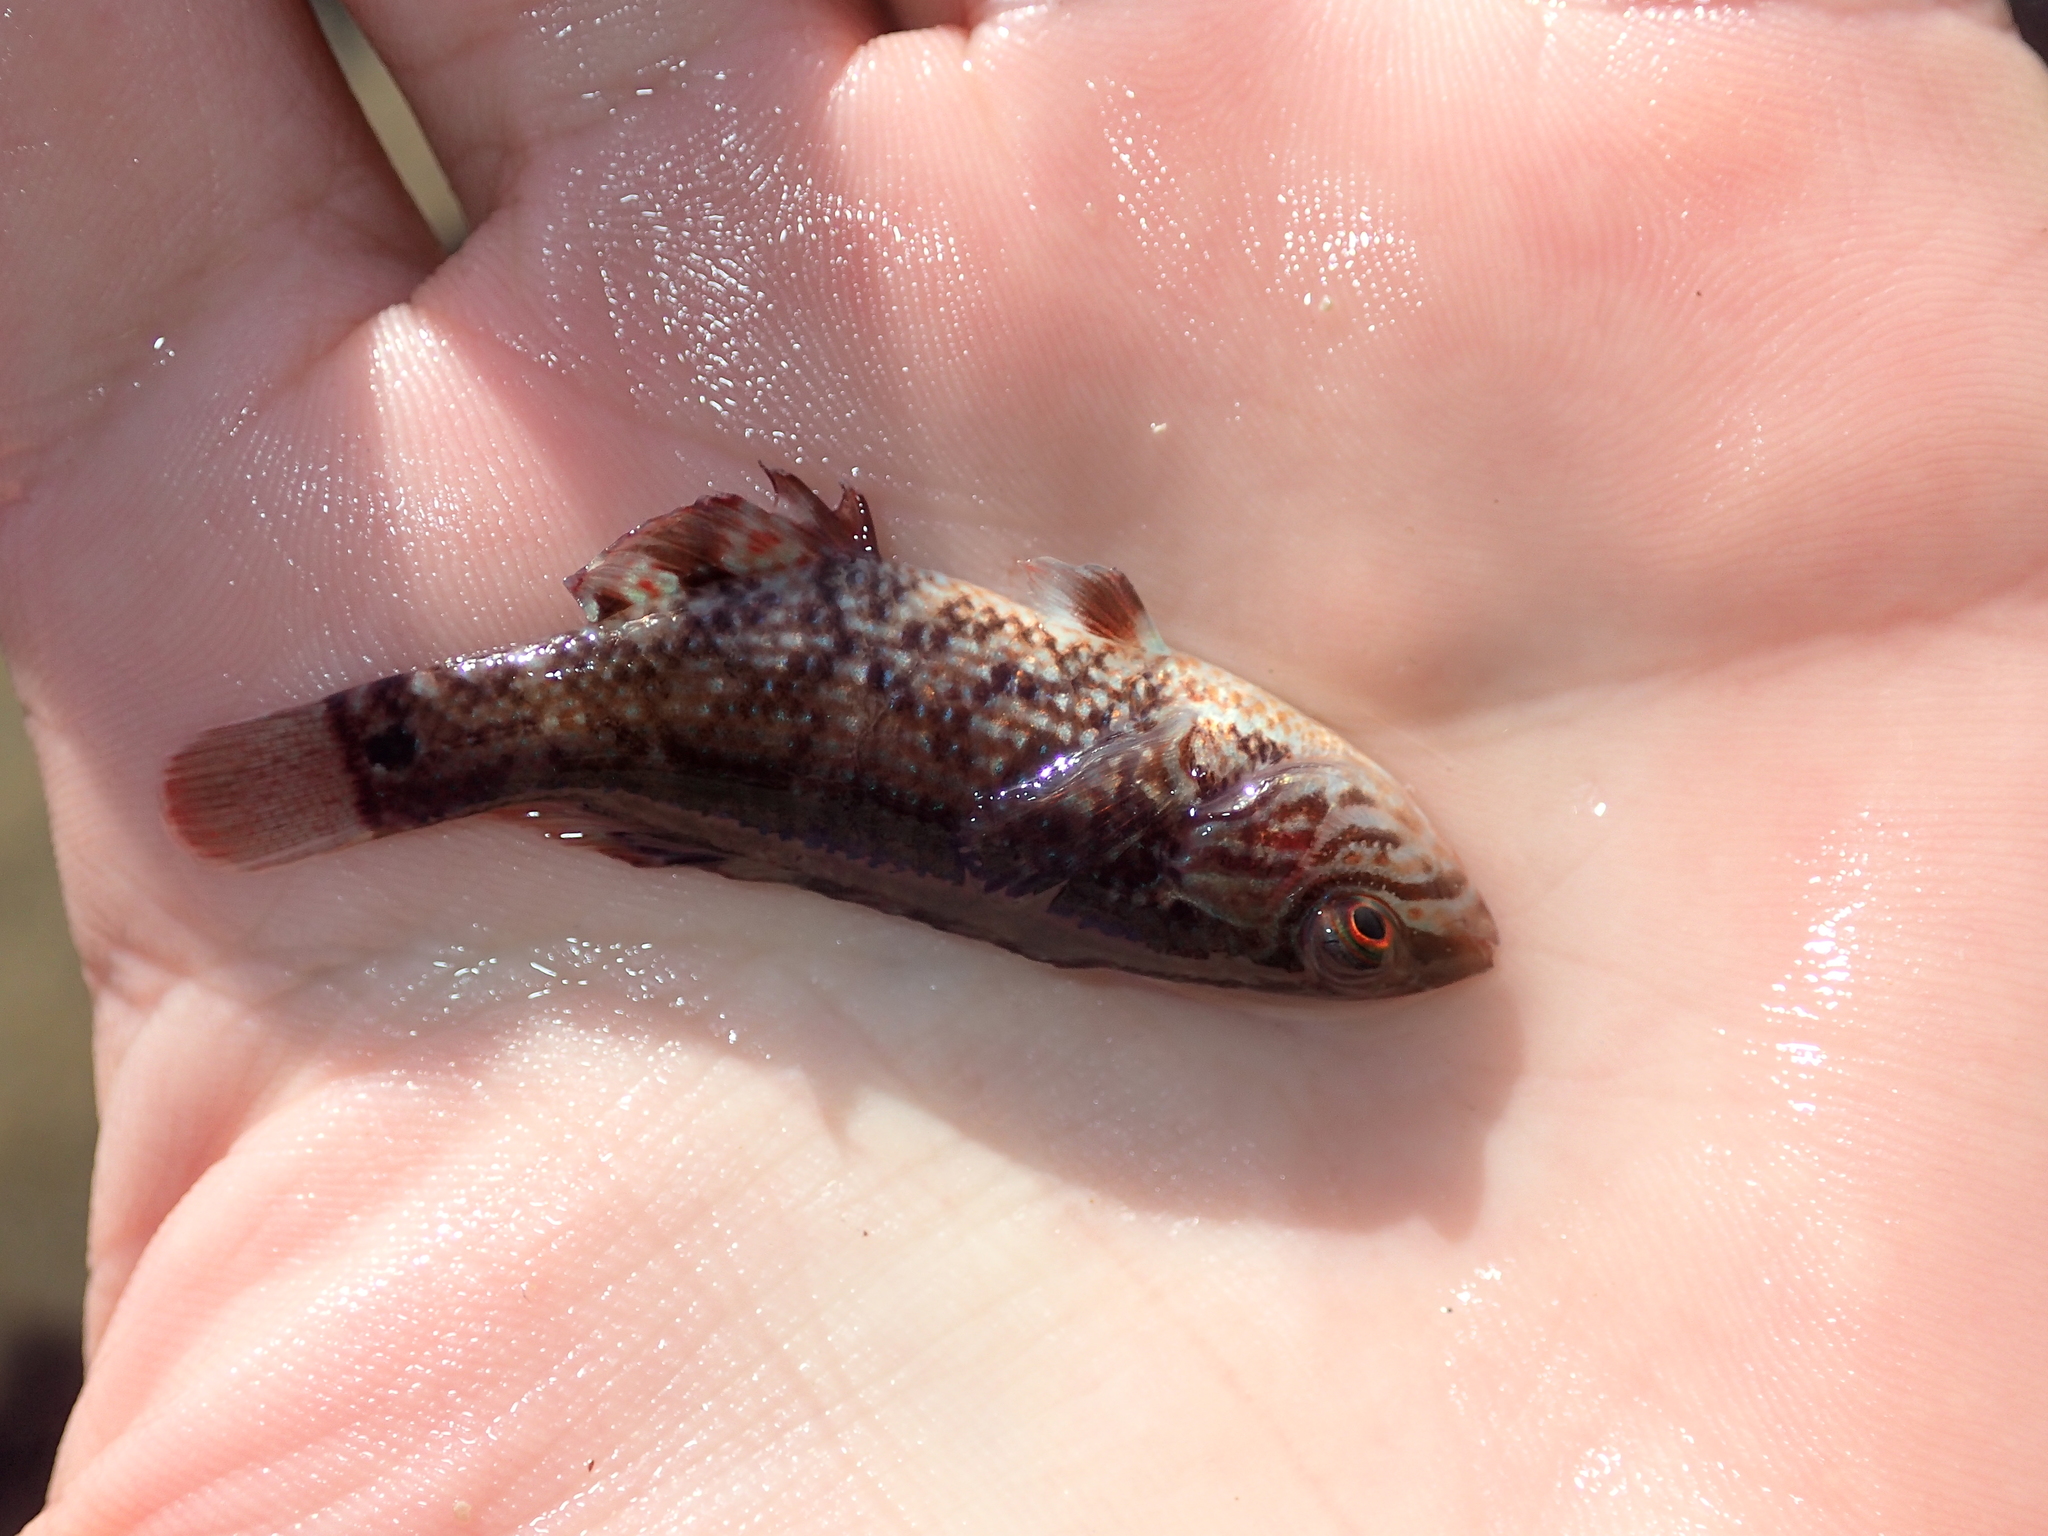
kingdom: Animalia
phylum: Chordata
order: Perciformes
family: Labridae
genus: Symphodus
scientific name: Symphodus melops
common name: Corkwing
